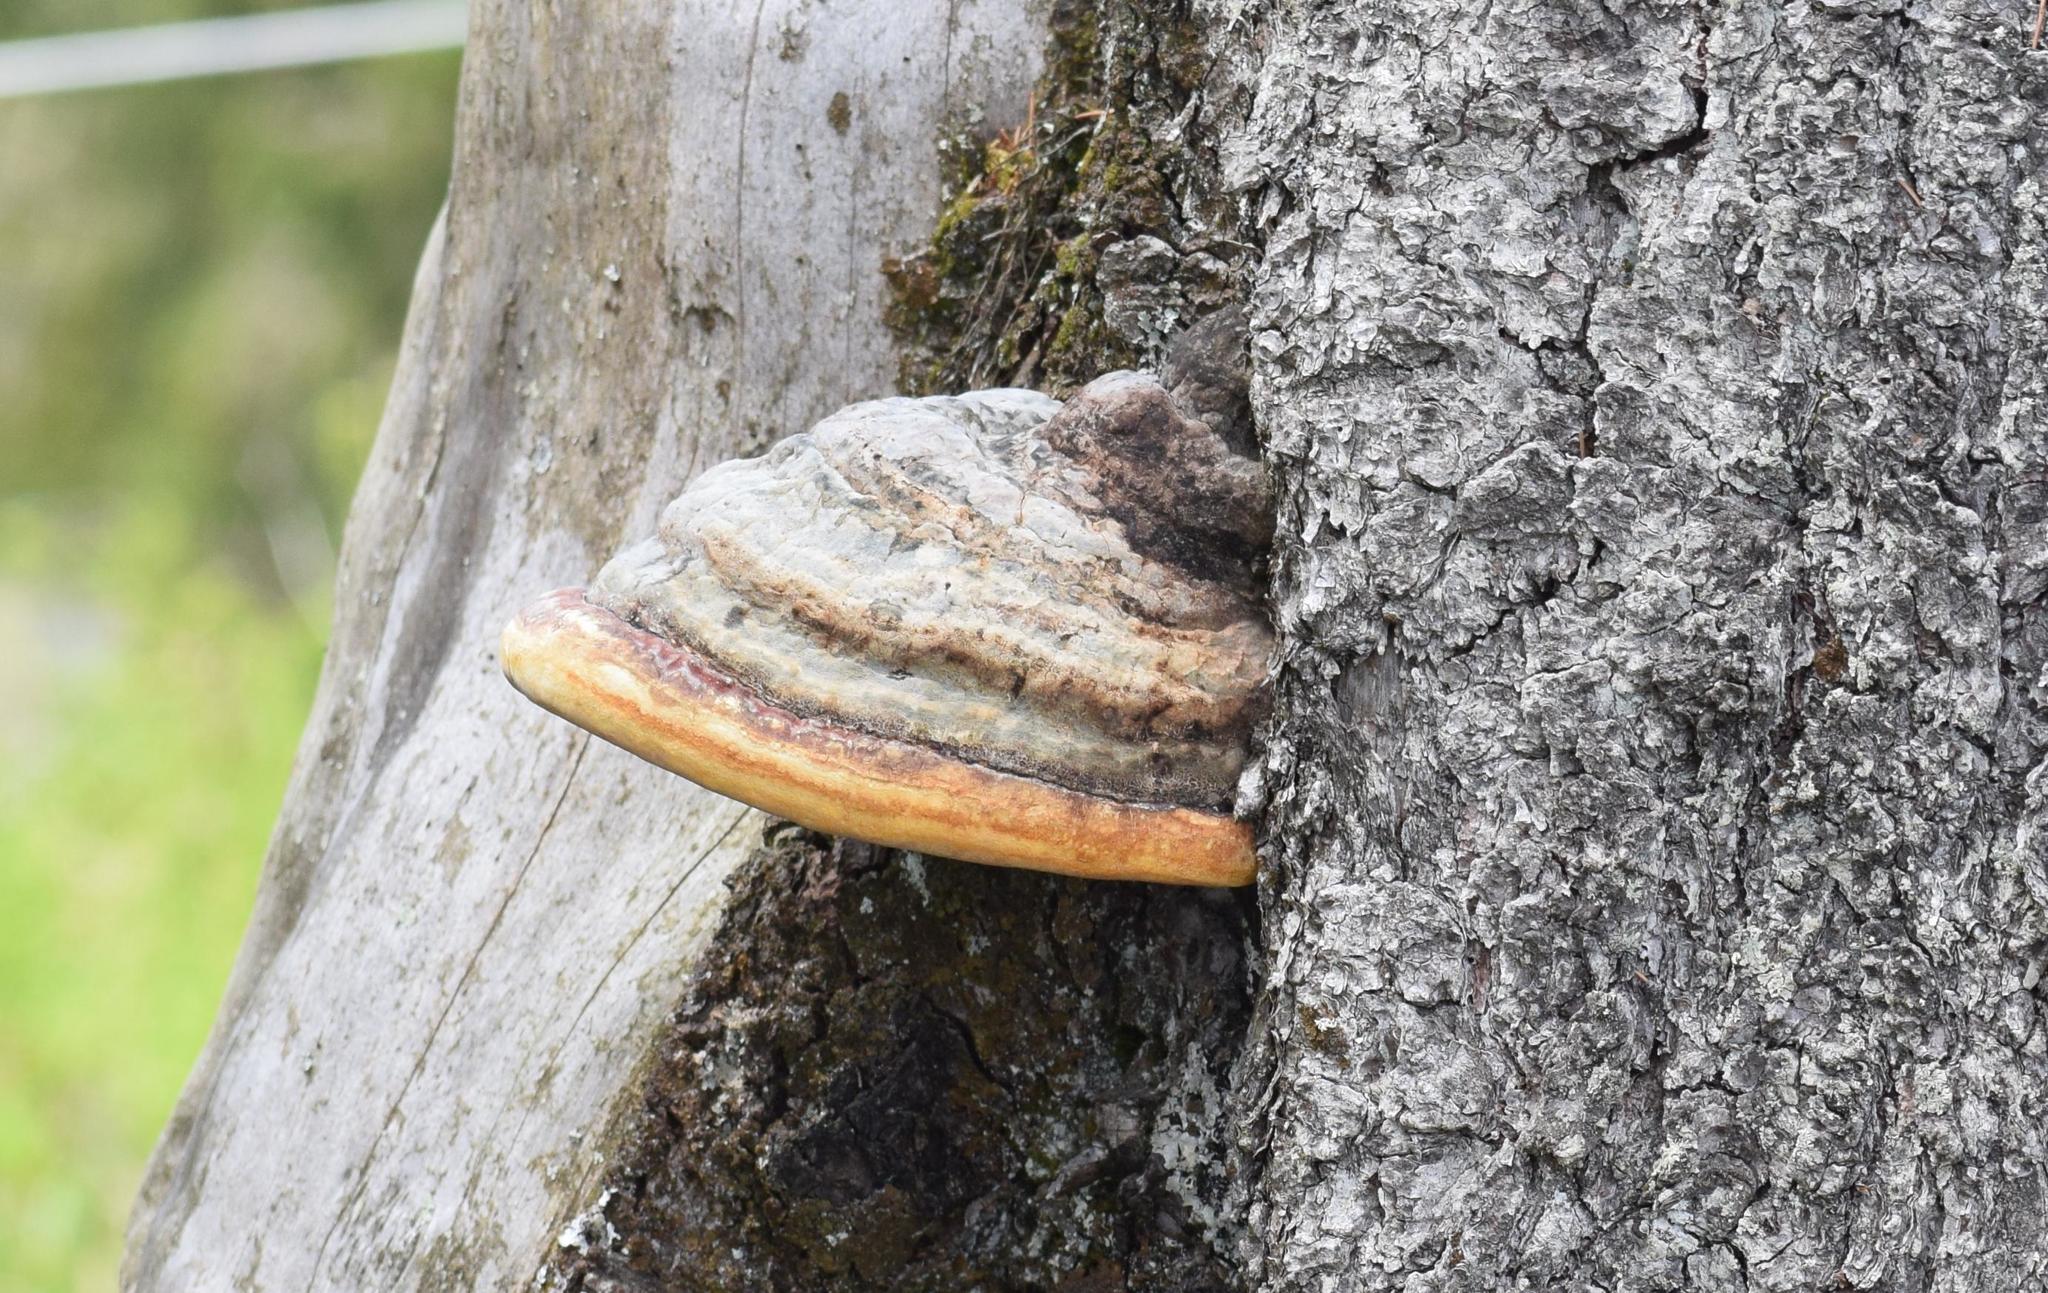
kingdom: Fungi
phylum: Basidiomycota
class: Agaricomycetes
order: Polyporales
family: Fomitopsidaceae
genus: Fomitopsis
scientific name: Fomitopsis pinicola
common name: Red-belted bracket
